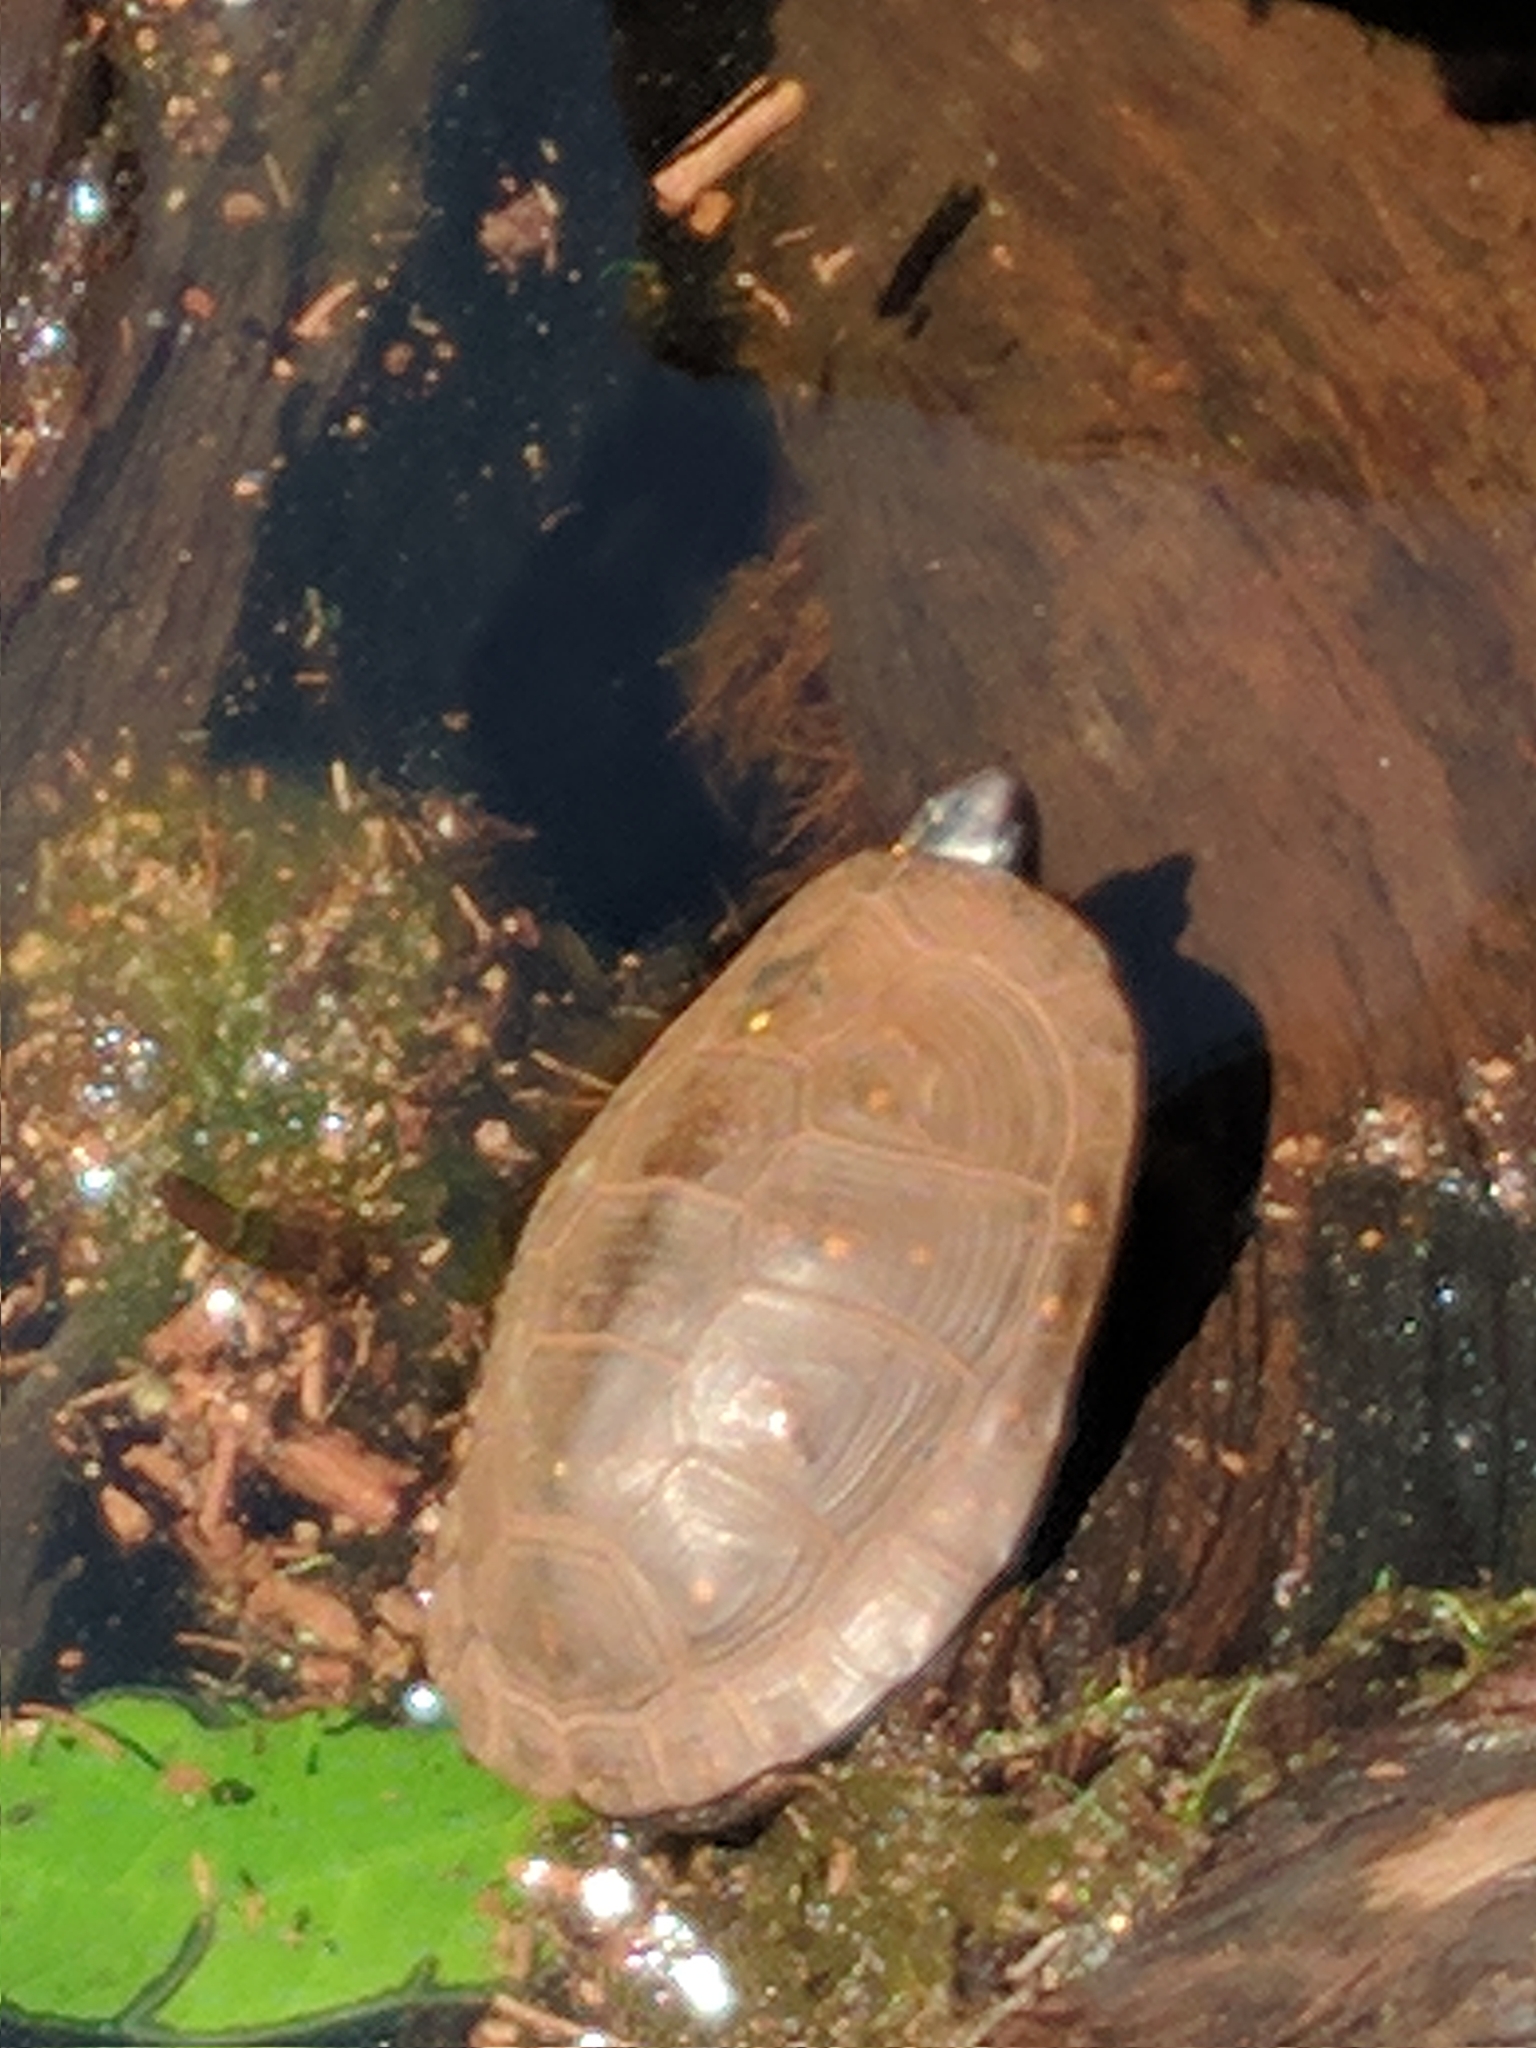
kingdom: Animalia
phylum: Chordata
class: Testudines
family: Emydidae
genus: Clemmys
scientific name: Clemmys guttata
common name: Spotted turtle
